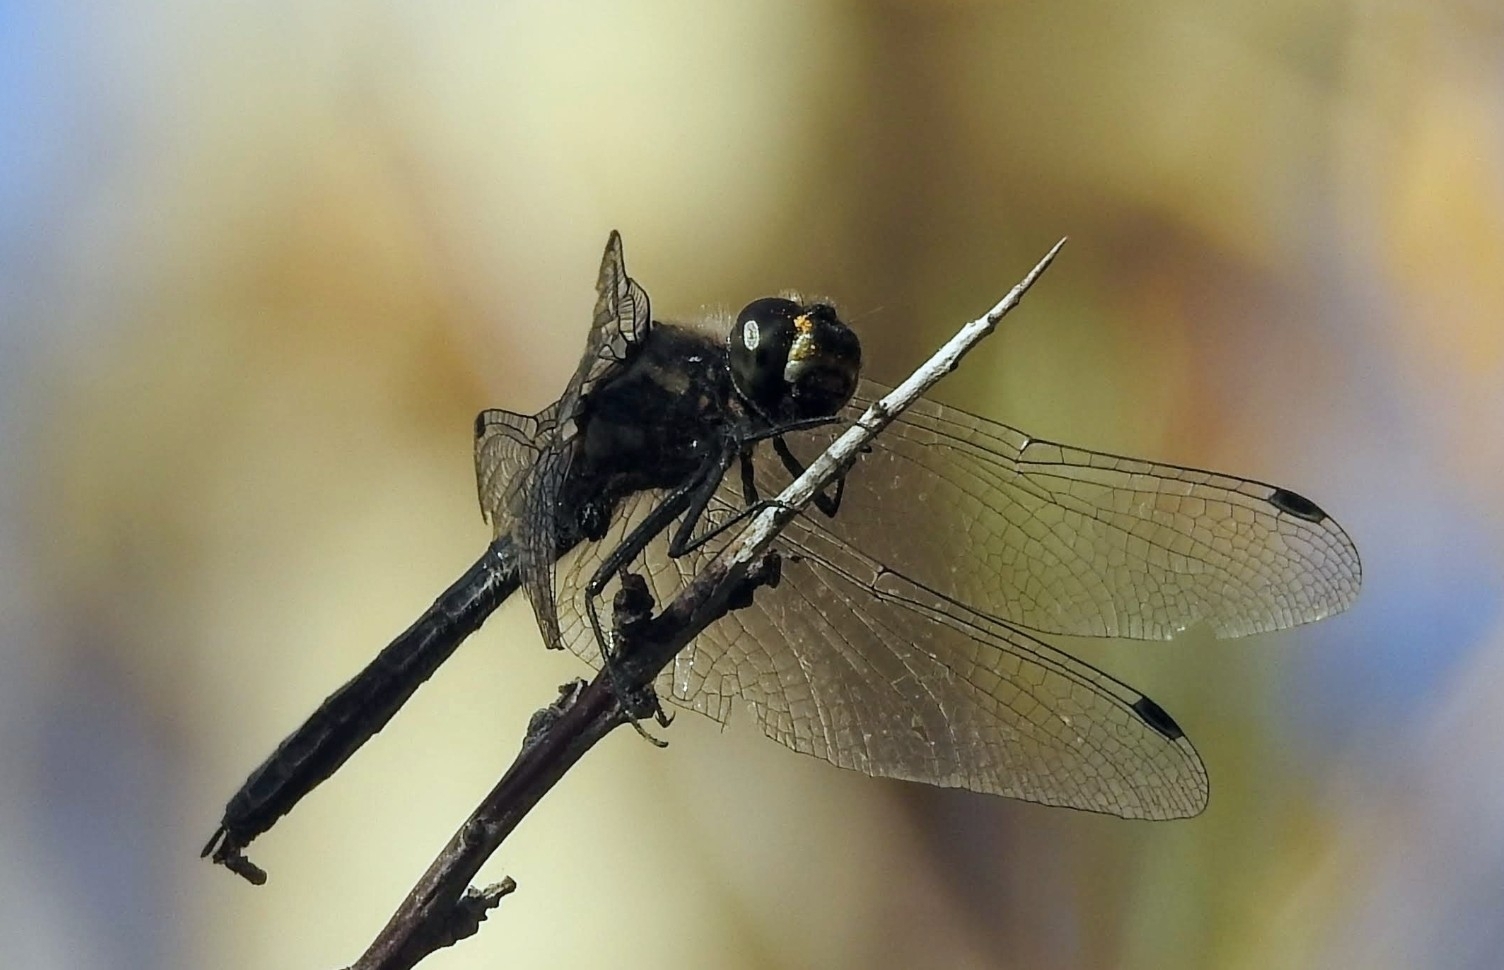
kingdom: Animalia
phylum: Arthropoda
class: Insecta
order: Odonata
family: Libellulidae
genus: Sympetrum
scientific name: Sympetrum danae
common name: Black darter
